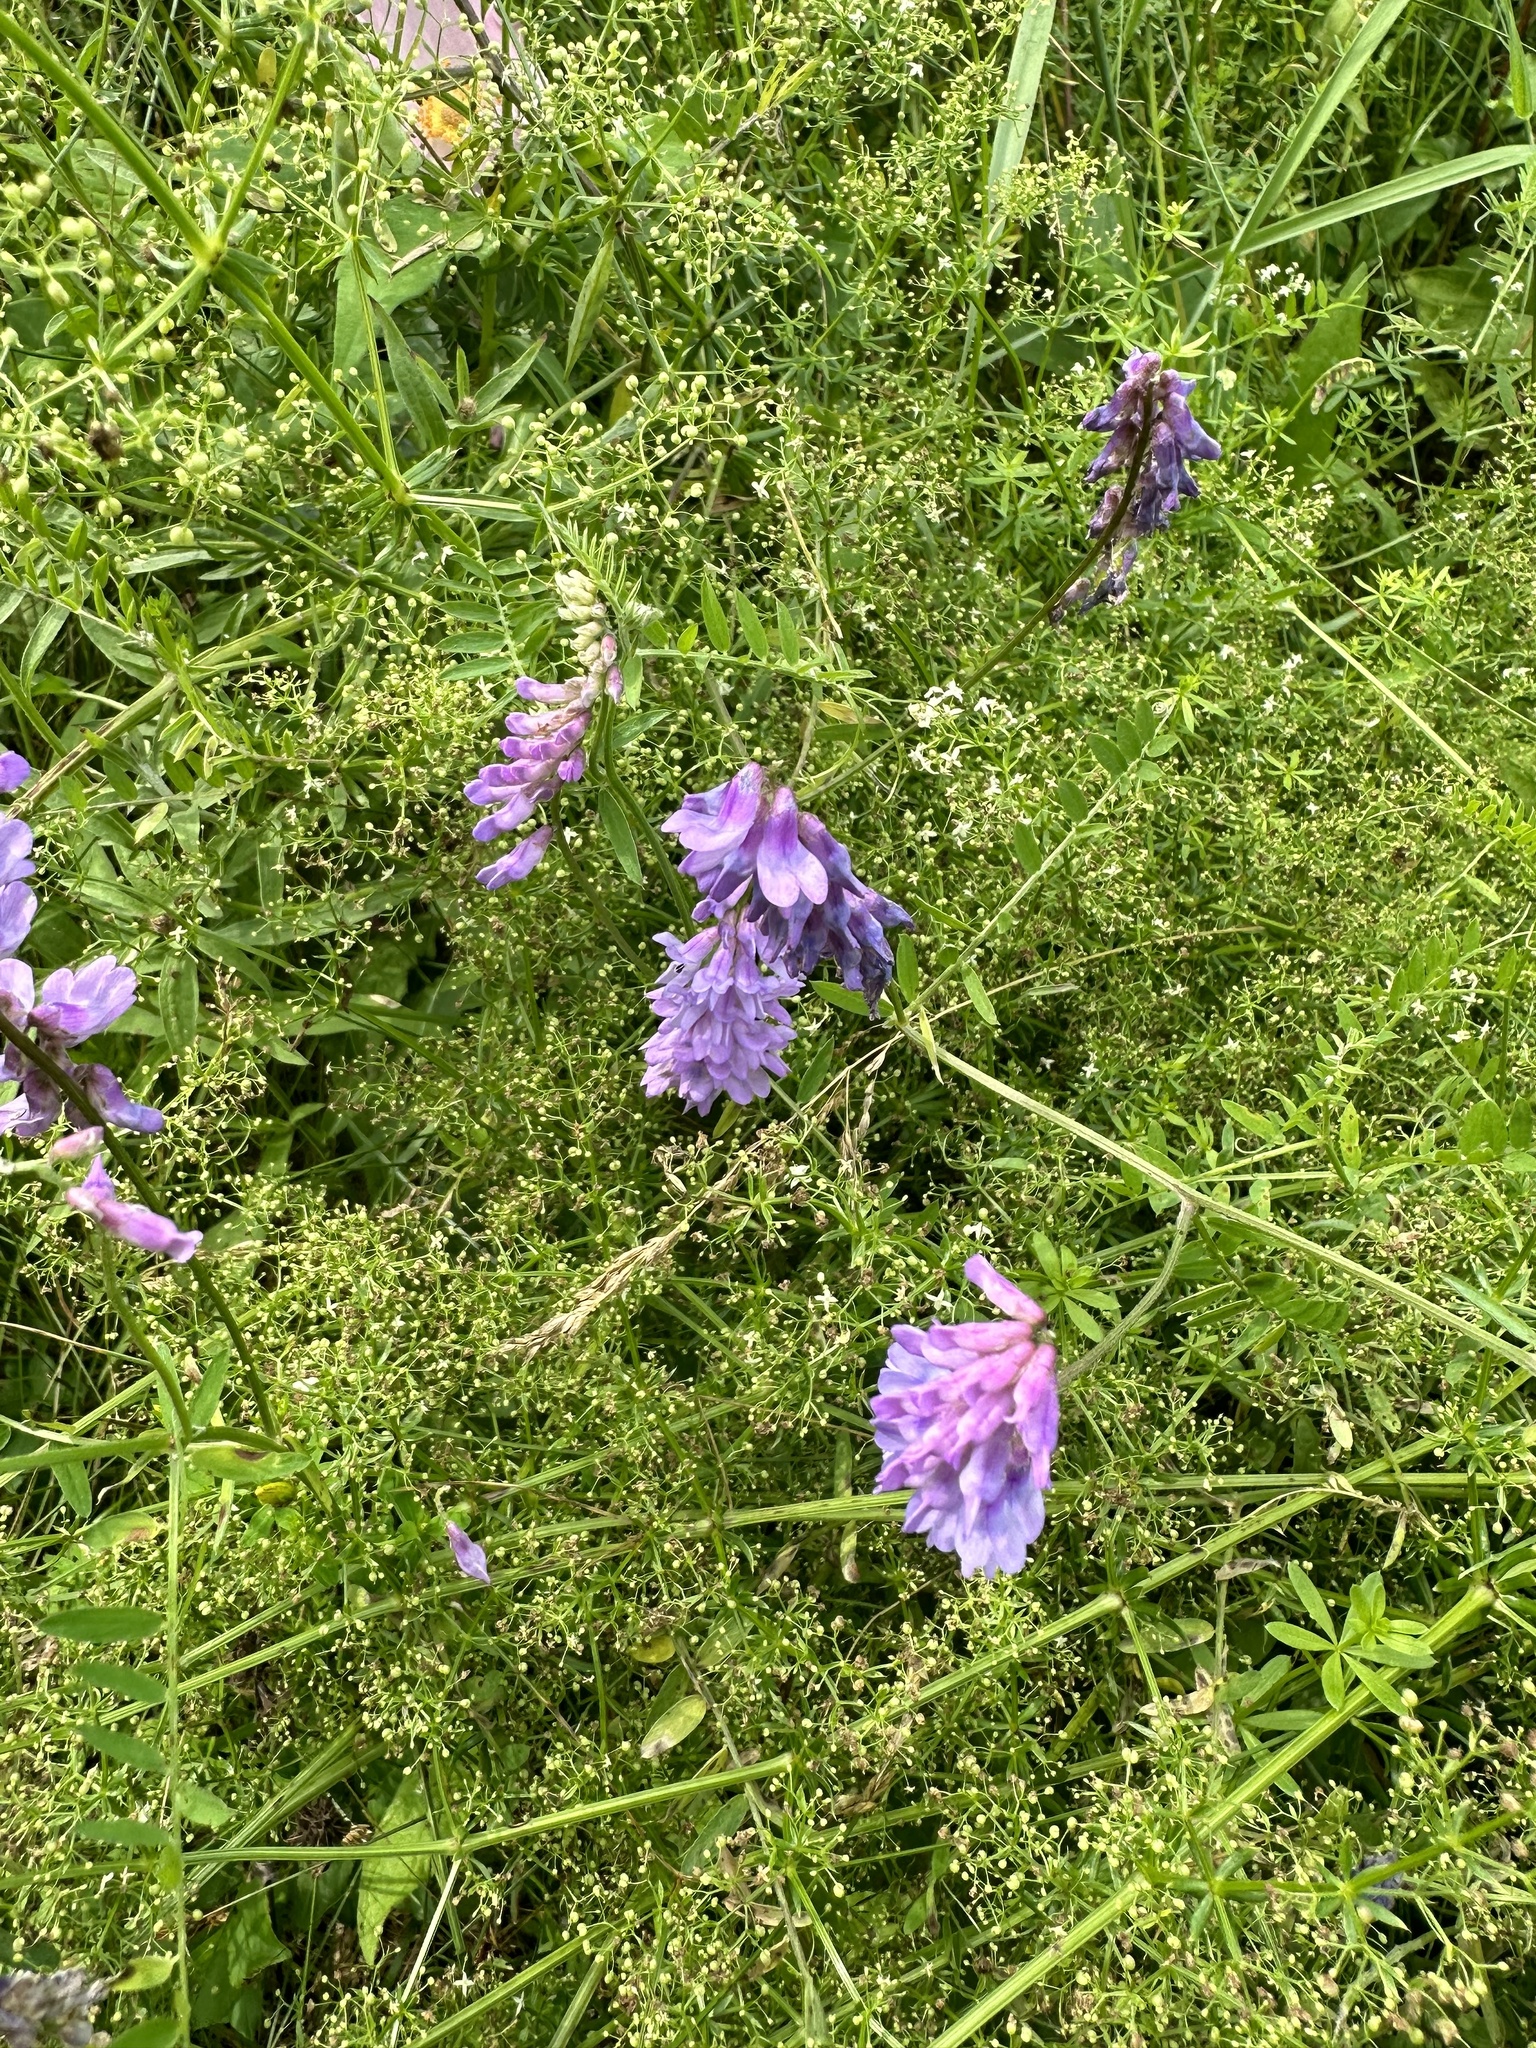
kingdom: Plantae
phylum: Tracheophyta
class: Magnoliopsida
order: Fabales
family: Fabaceae
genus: Vicia
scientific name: Vicia cracca
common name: Bird vetch
